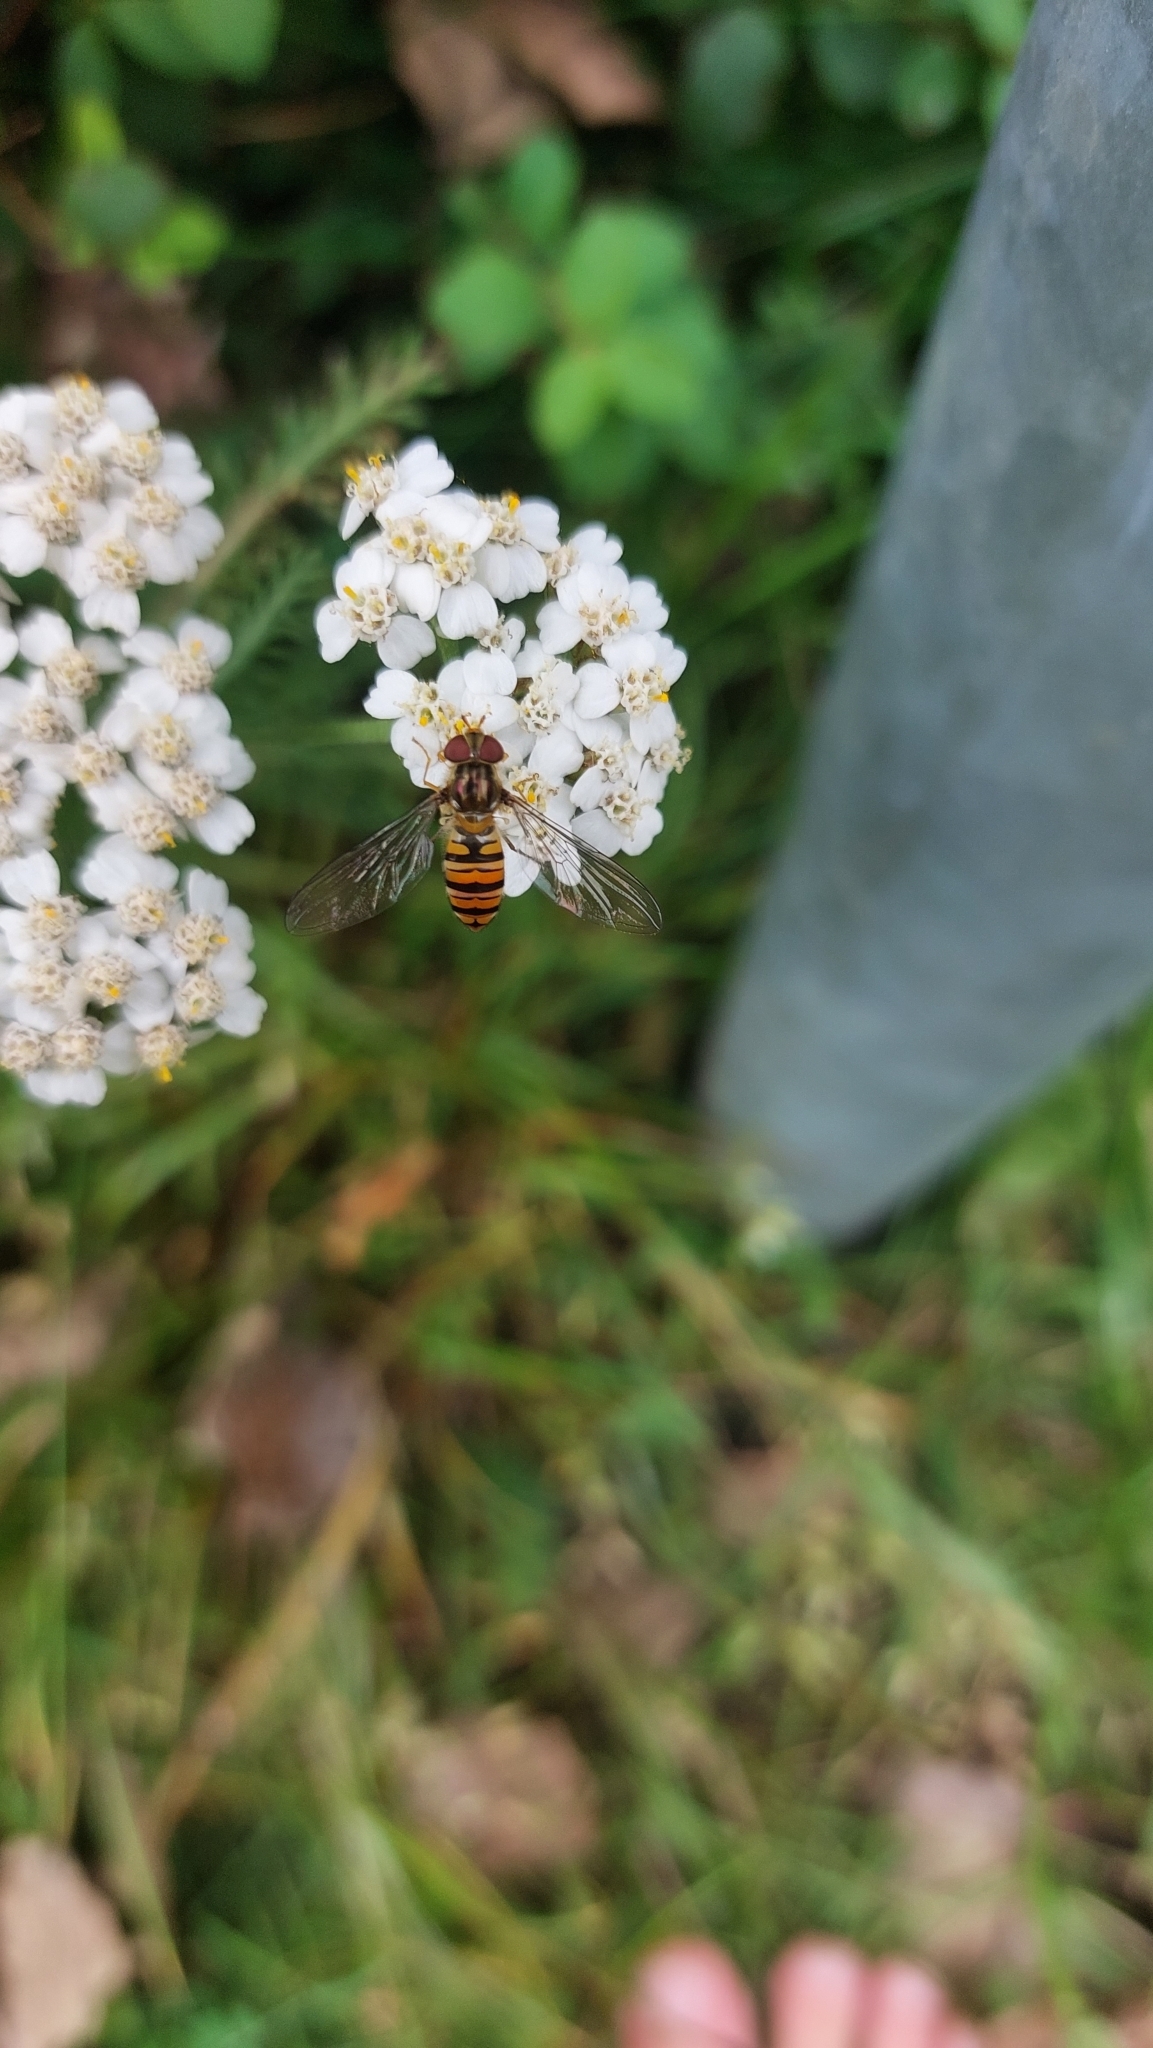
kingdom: Animalia
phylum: Arthropoda
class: Insecta
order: Diptera
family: Syrphidae
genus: Episyrphus
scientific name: Episyrphus balteatus
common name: Marmalade hoverfly
